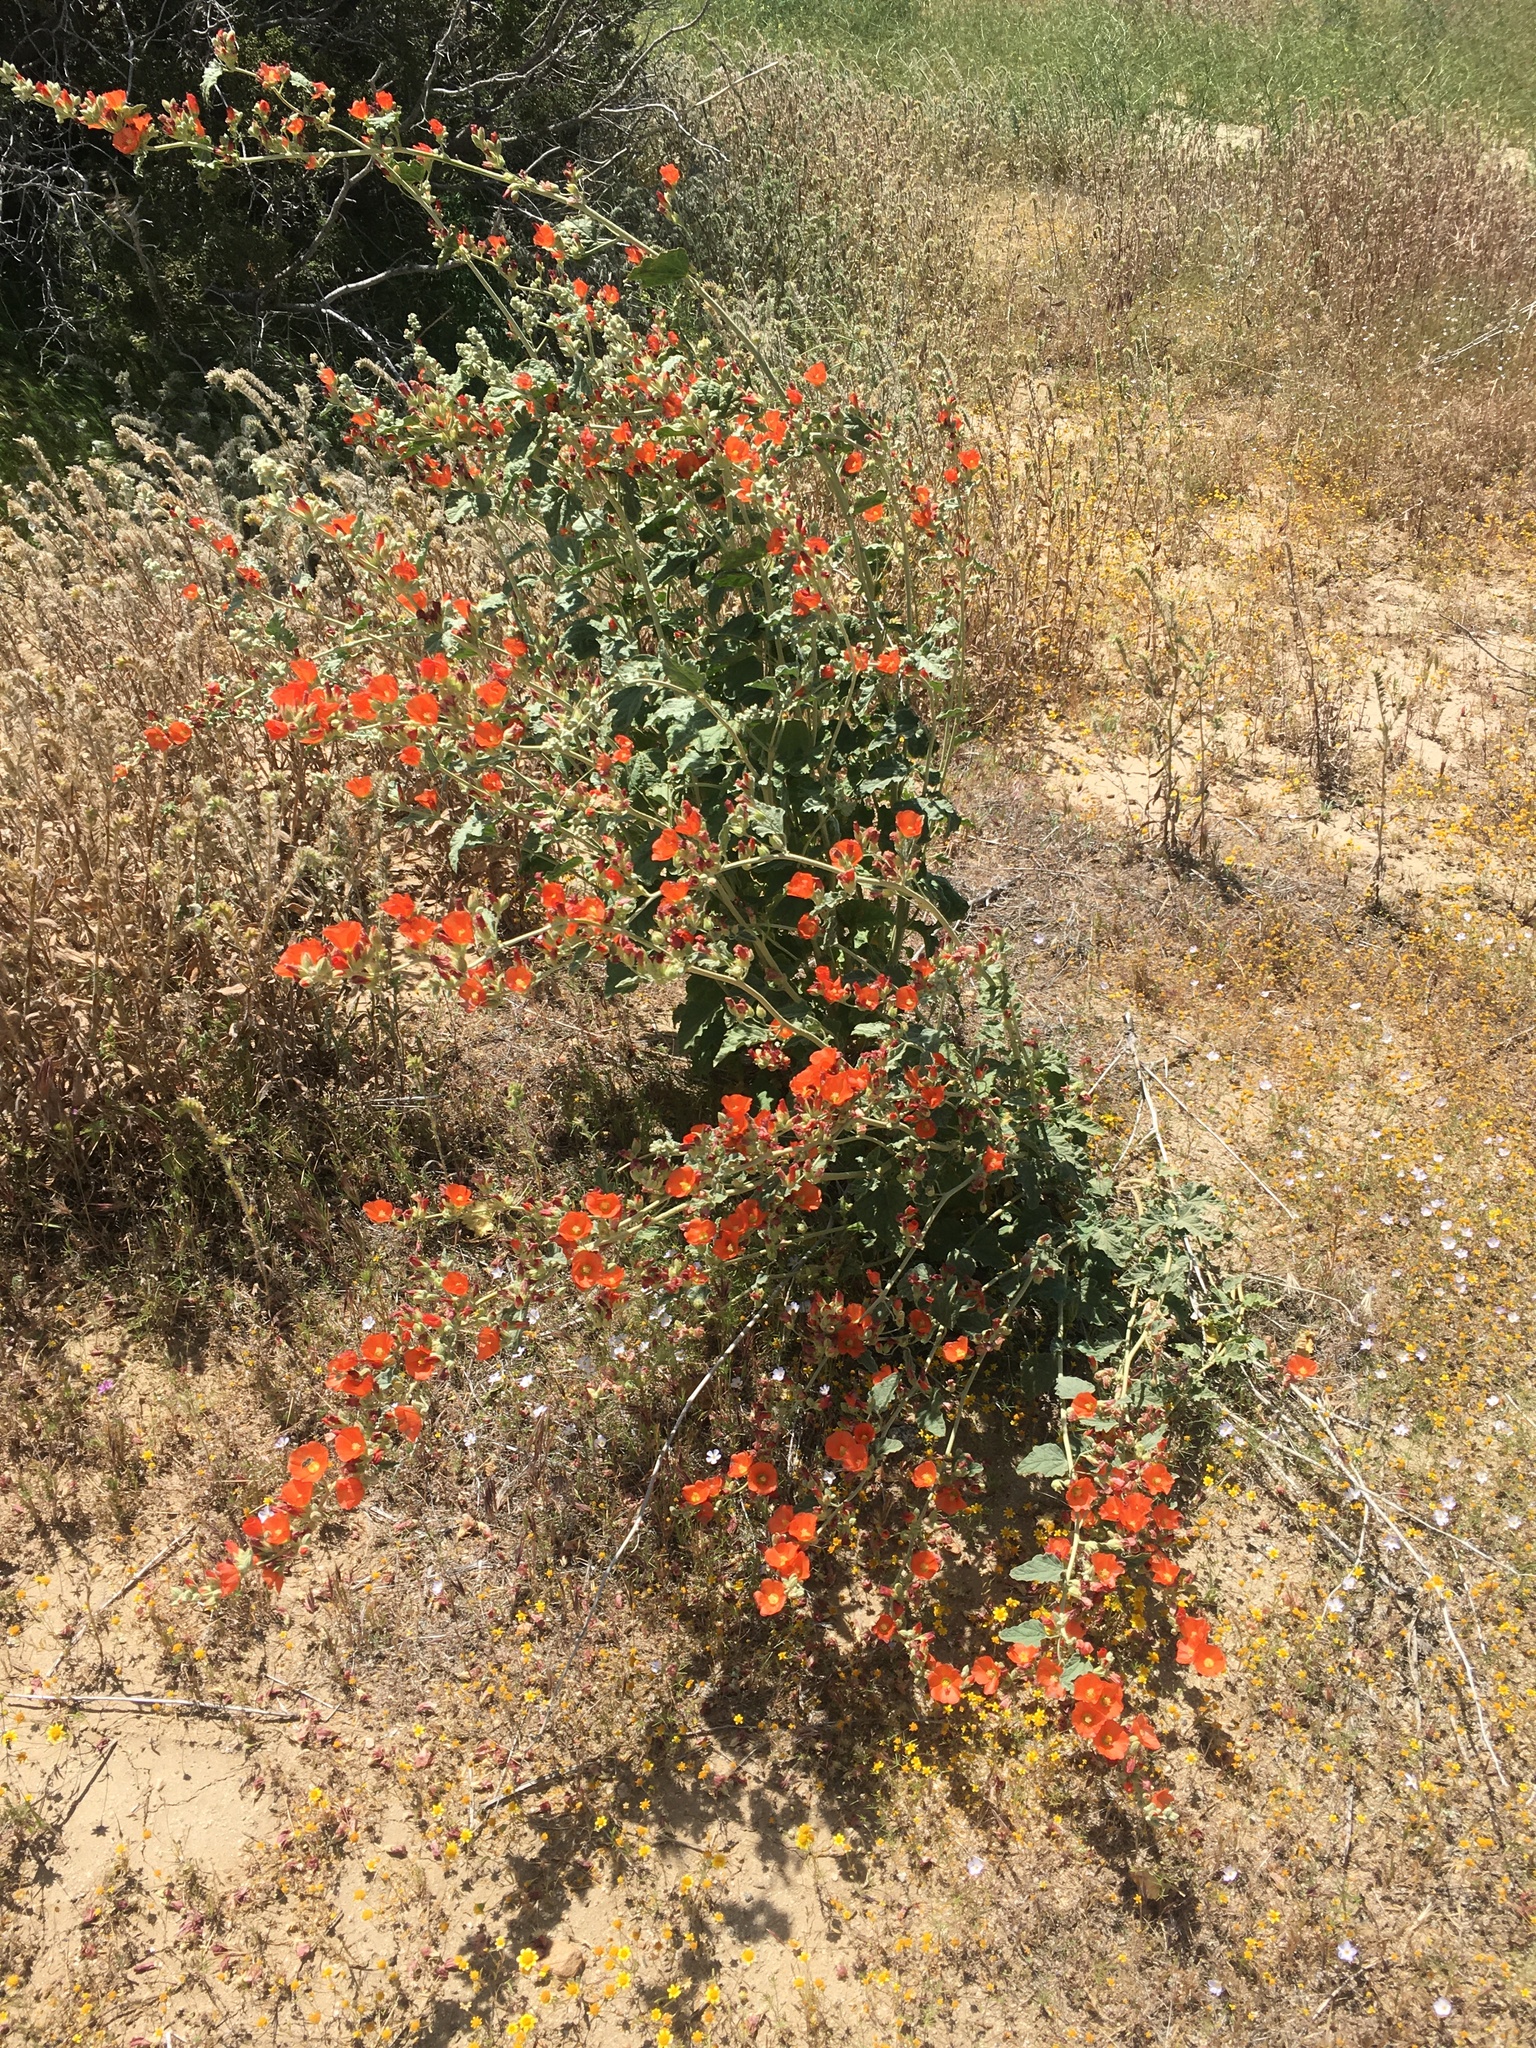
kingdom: Plantae
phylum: Tracheophyta
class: Magnoliopsida
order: Malvales
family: Malvaceae
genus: Sphaeralcea
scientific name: Sphaeralcea ambigua
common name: Apricot globe-mallow
